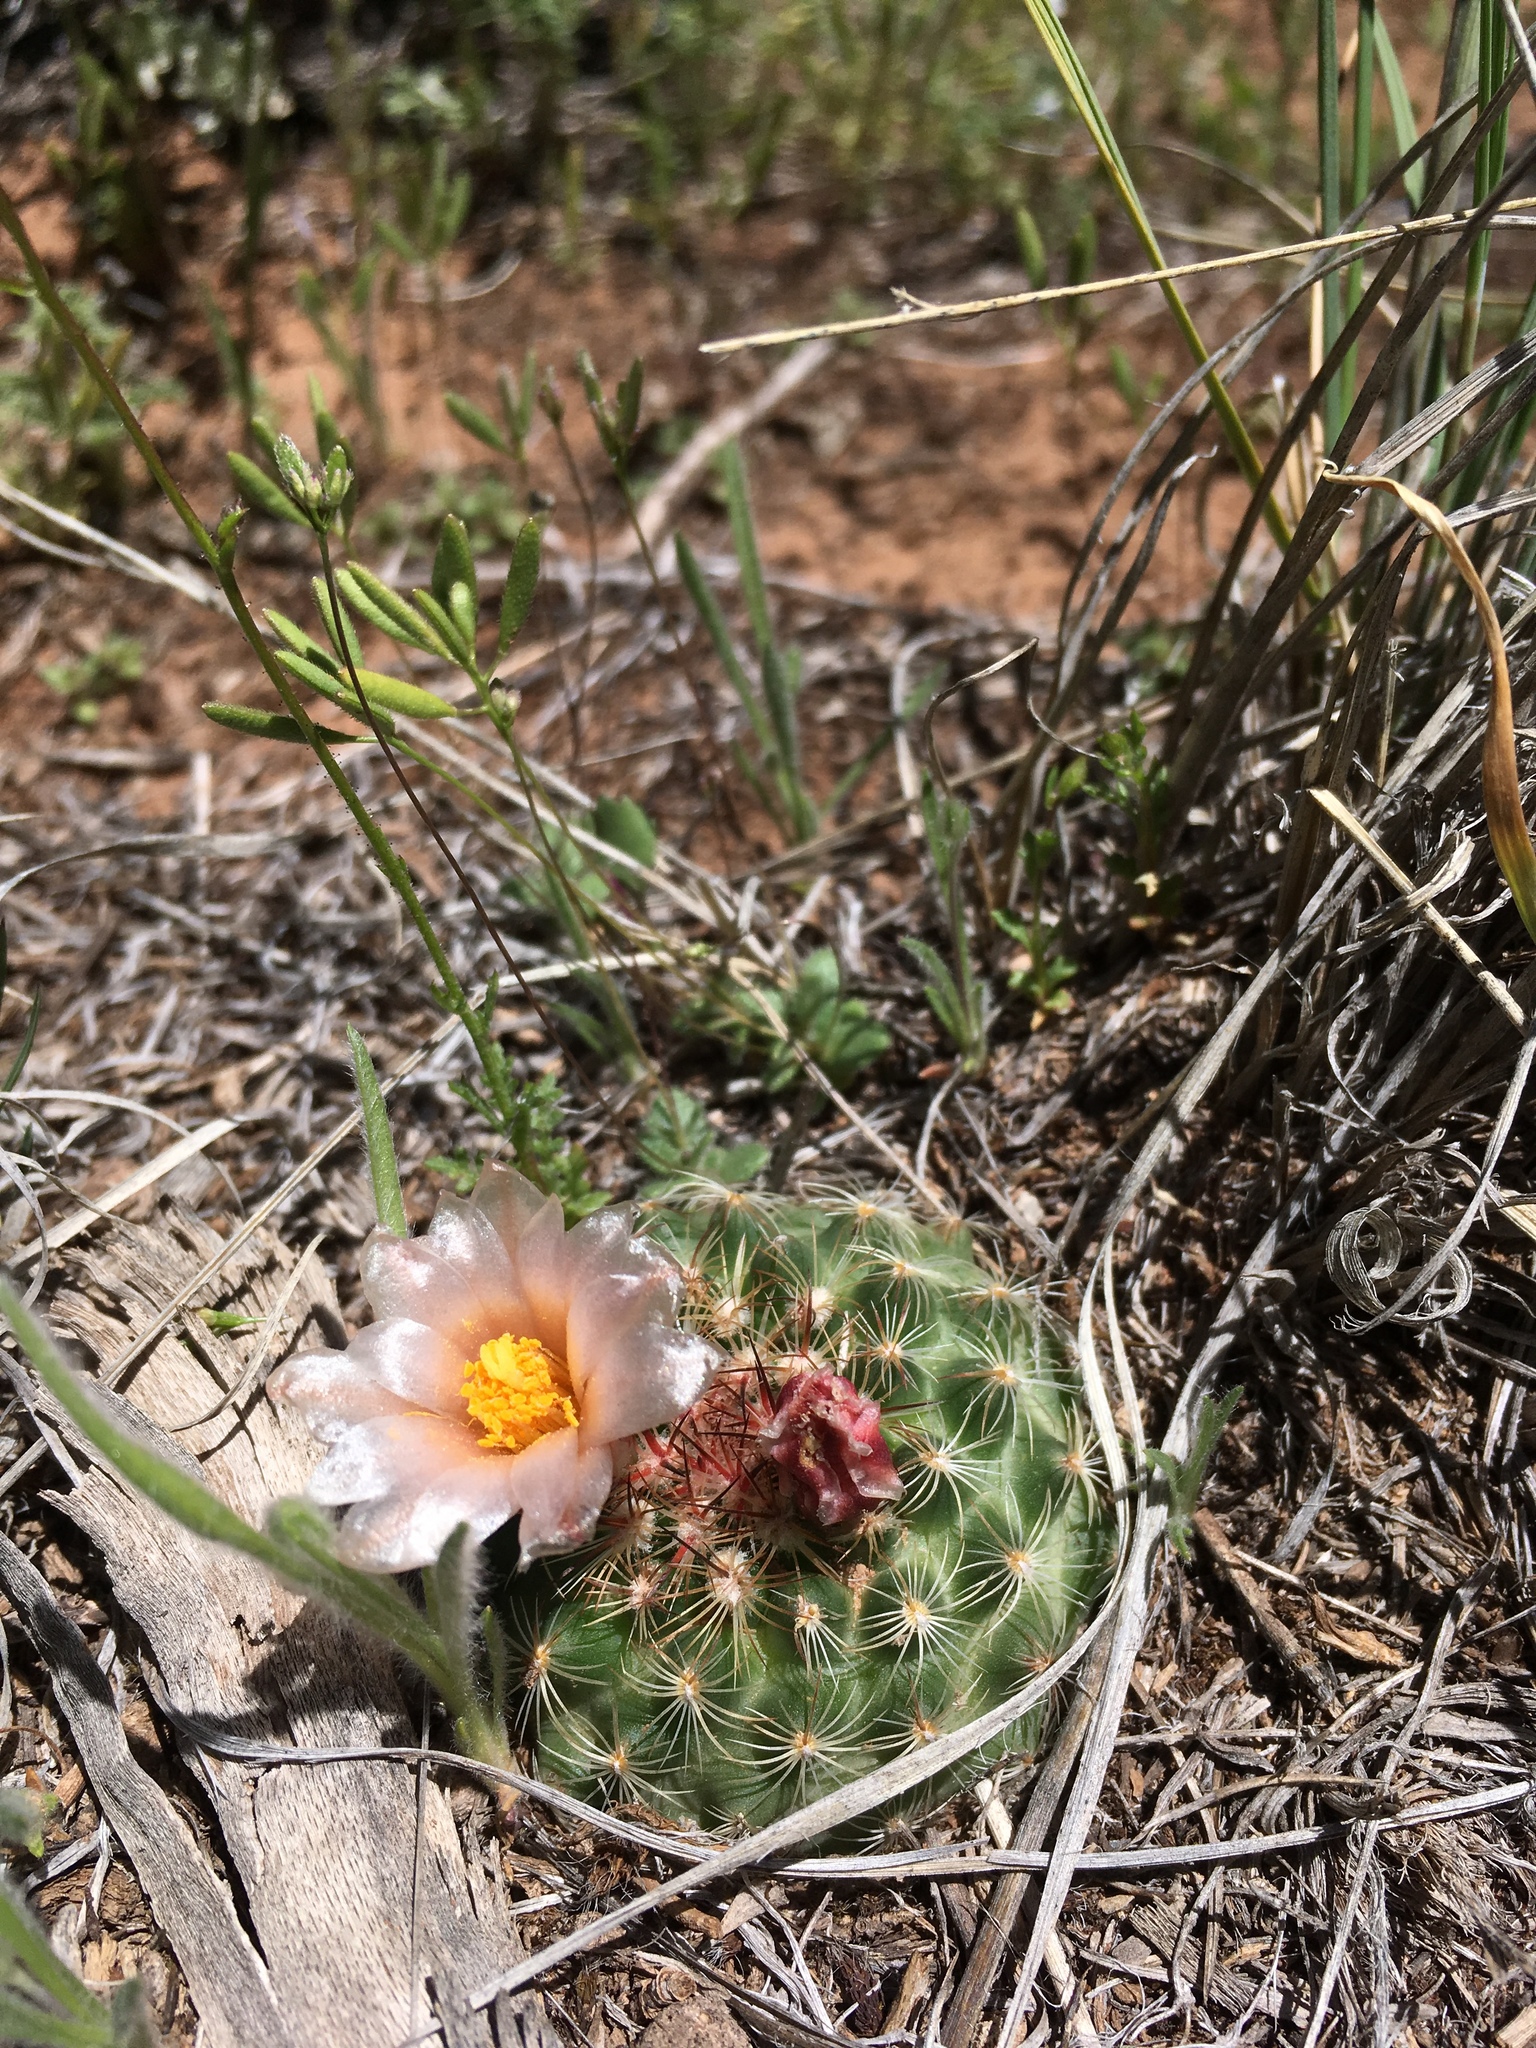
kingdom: Plantae
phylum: Tracheophyta
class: Magnoliopsida
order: Caryophyllales
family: Cactaceae
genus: Pediocactus
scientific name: Pediocactus simpsonii
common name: Simpson's hedgehog cactus
